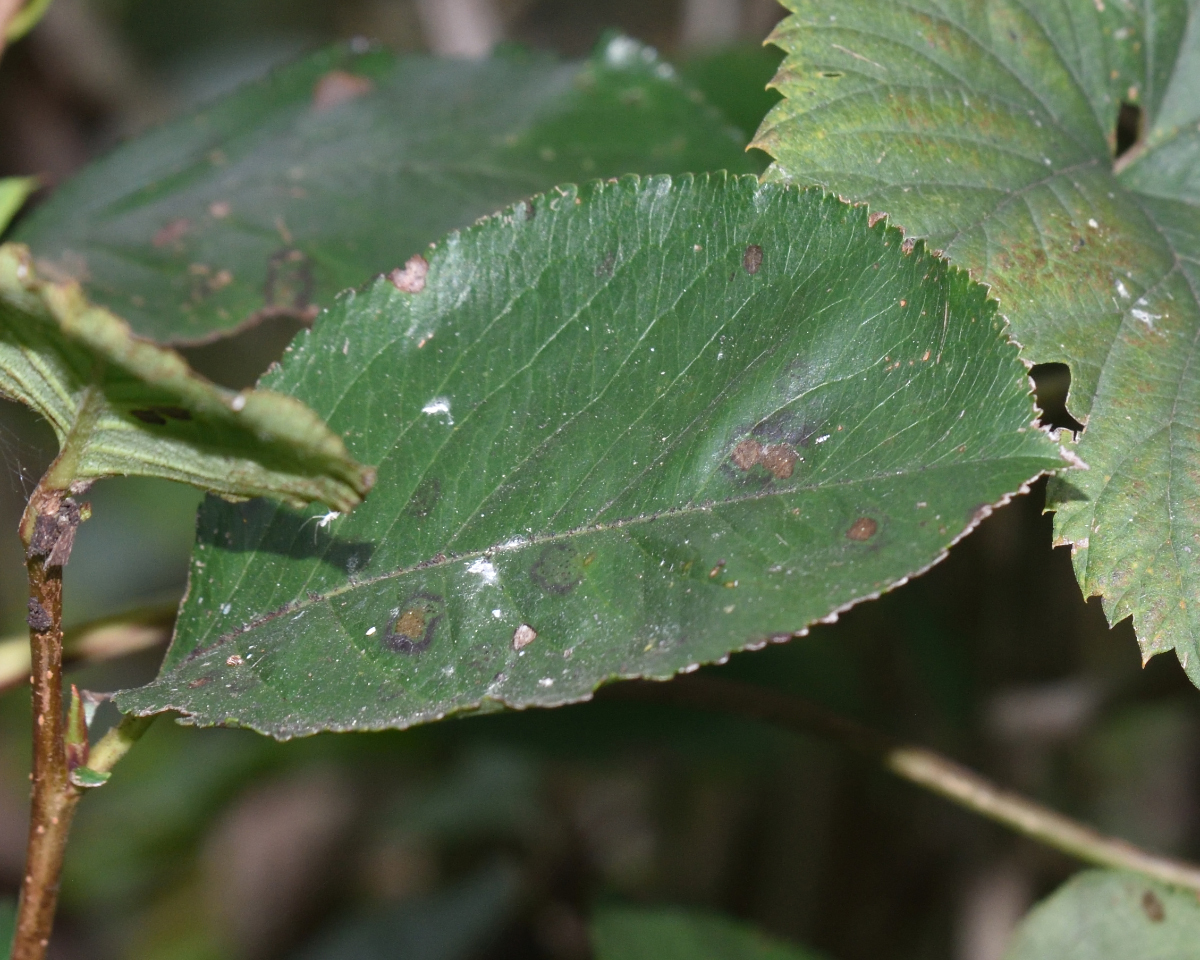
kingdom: Plantae
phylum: Tracheophyta
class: Magnoliopsida
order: Rosales
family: Rosaceae
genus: Sorbaronia
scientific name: Sorbaronia arsenii
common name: Arsène's mountain-ash
